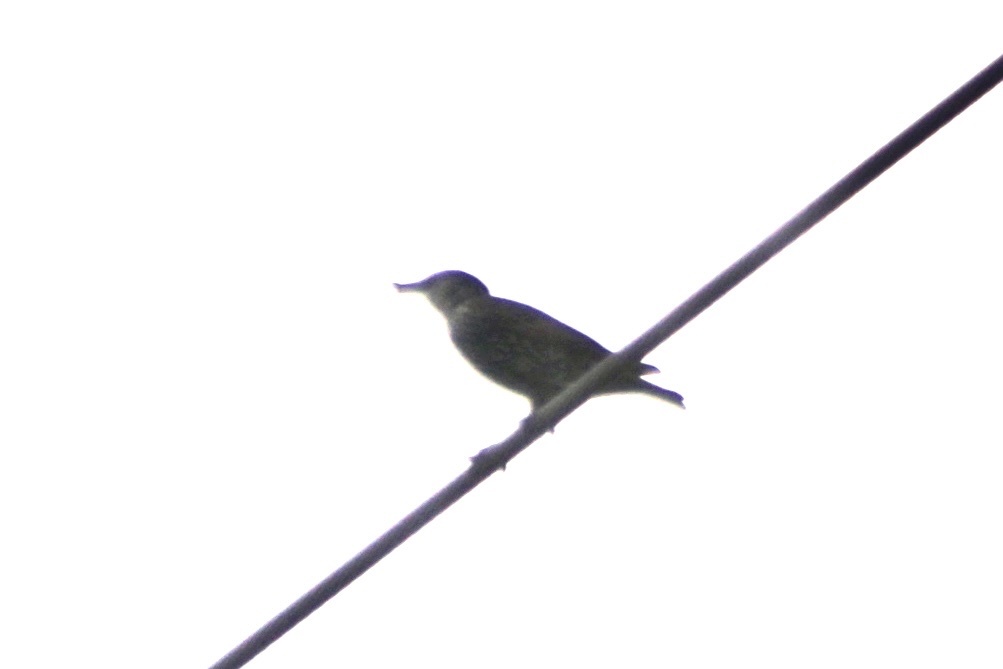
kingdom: Animalia
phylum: Chordata
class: Aves
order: Passeriformes
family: Sturnidae
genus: Sturnus
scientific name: Sturnus vulgaris
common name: Common starling
